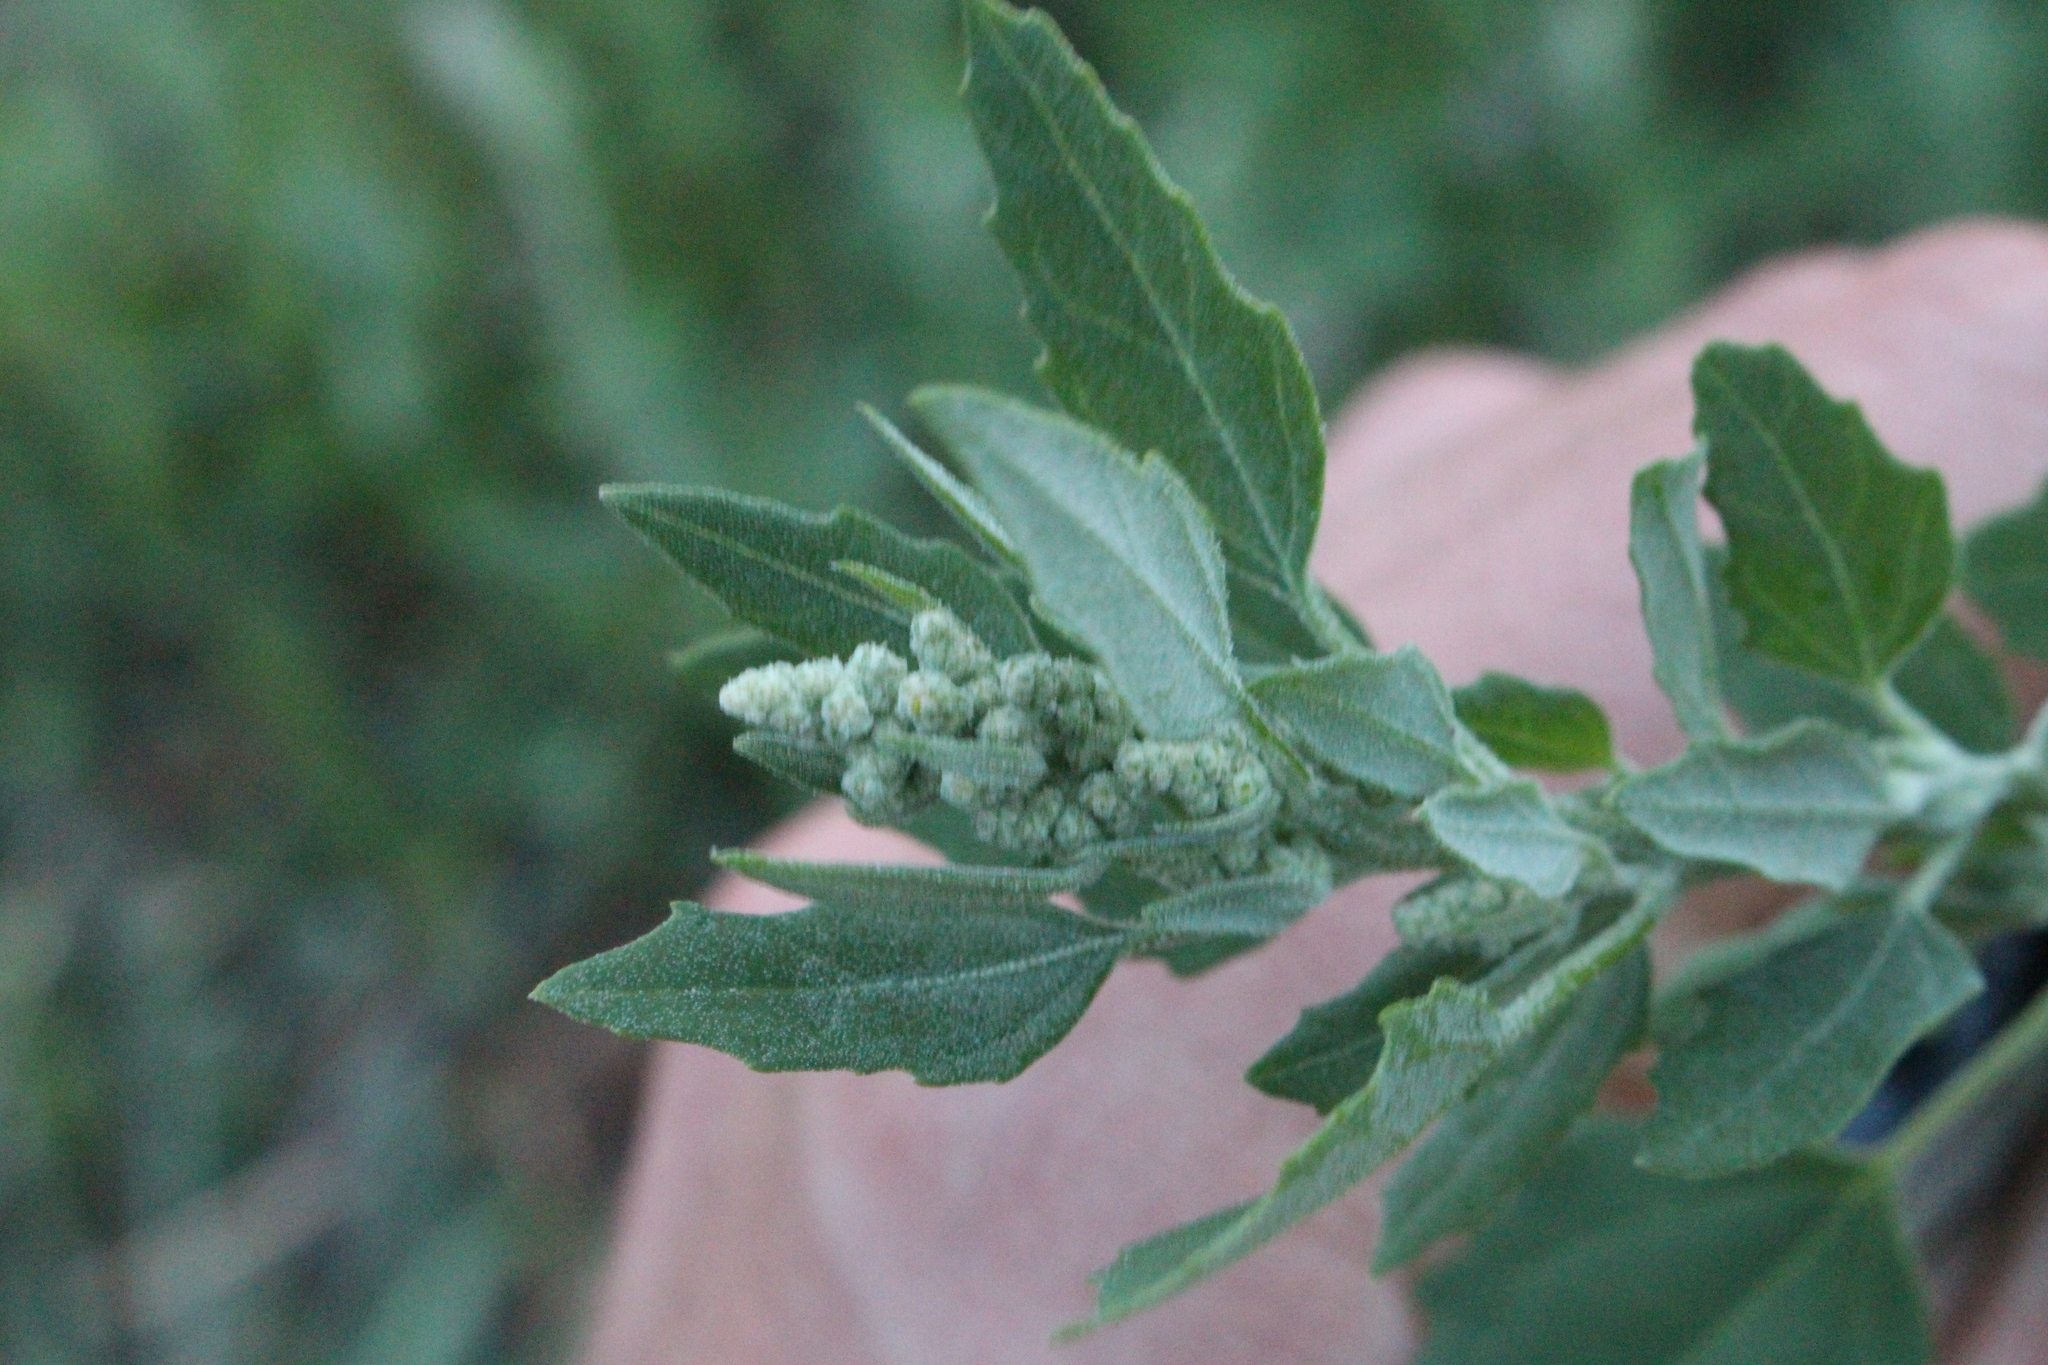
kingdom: Plantae
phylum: Tracheophyta
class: Magnoliopsida
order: Caryophyllales
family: Amaranthaceae
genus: Chenopodium
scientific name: Chenopodium album
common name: Fat-hen
